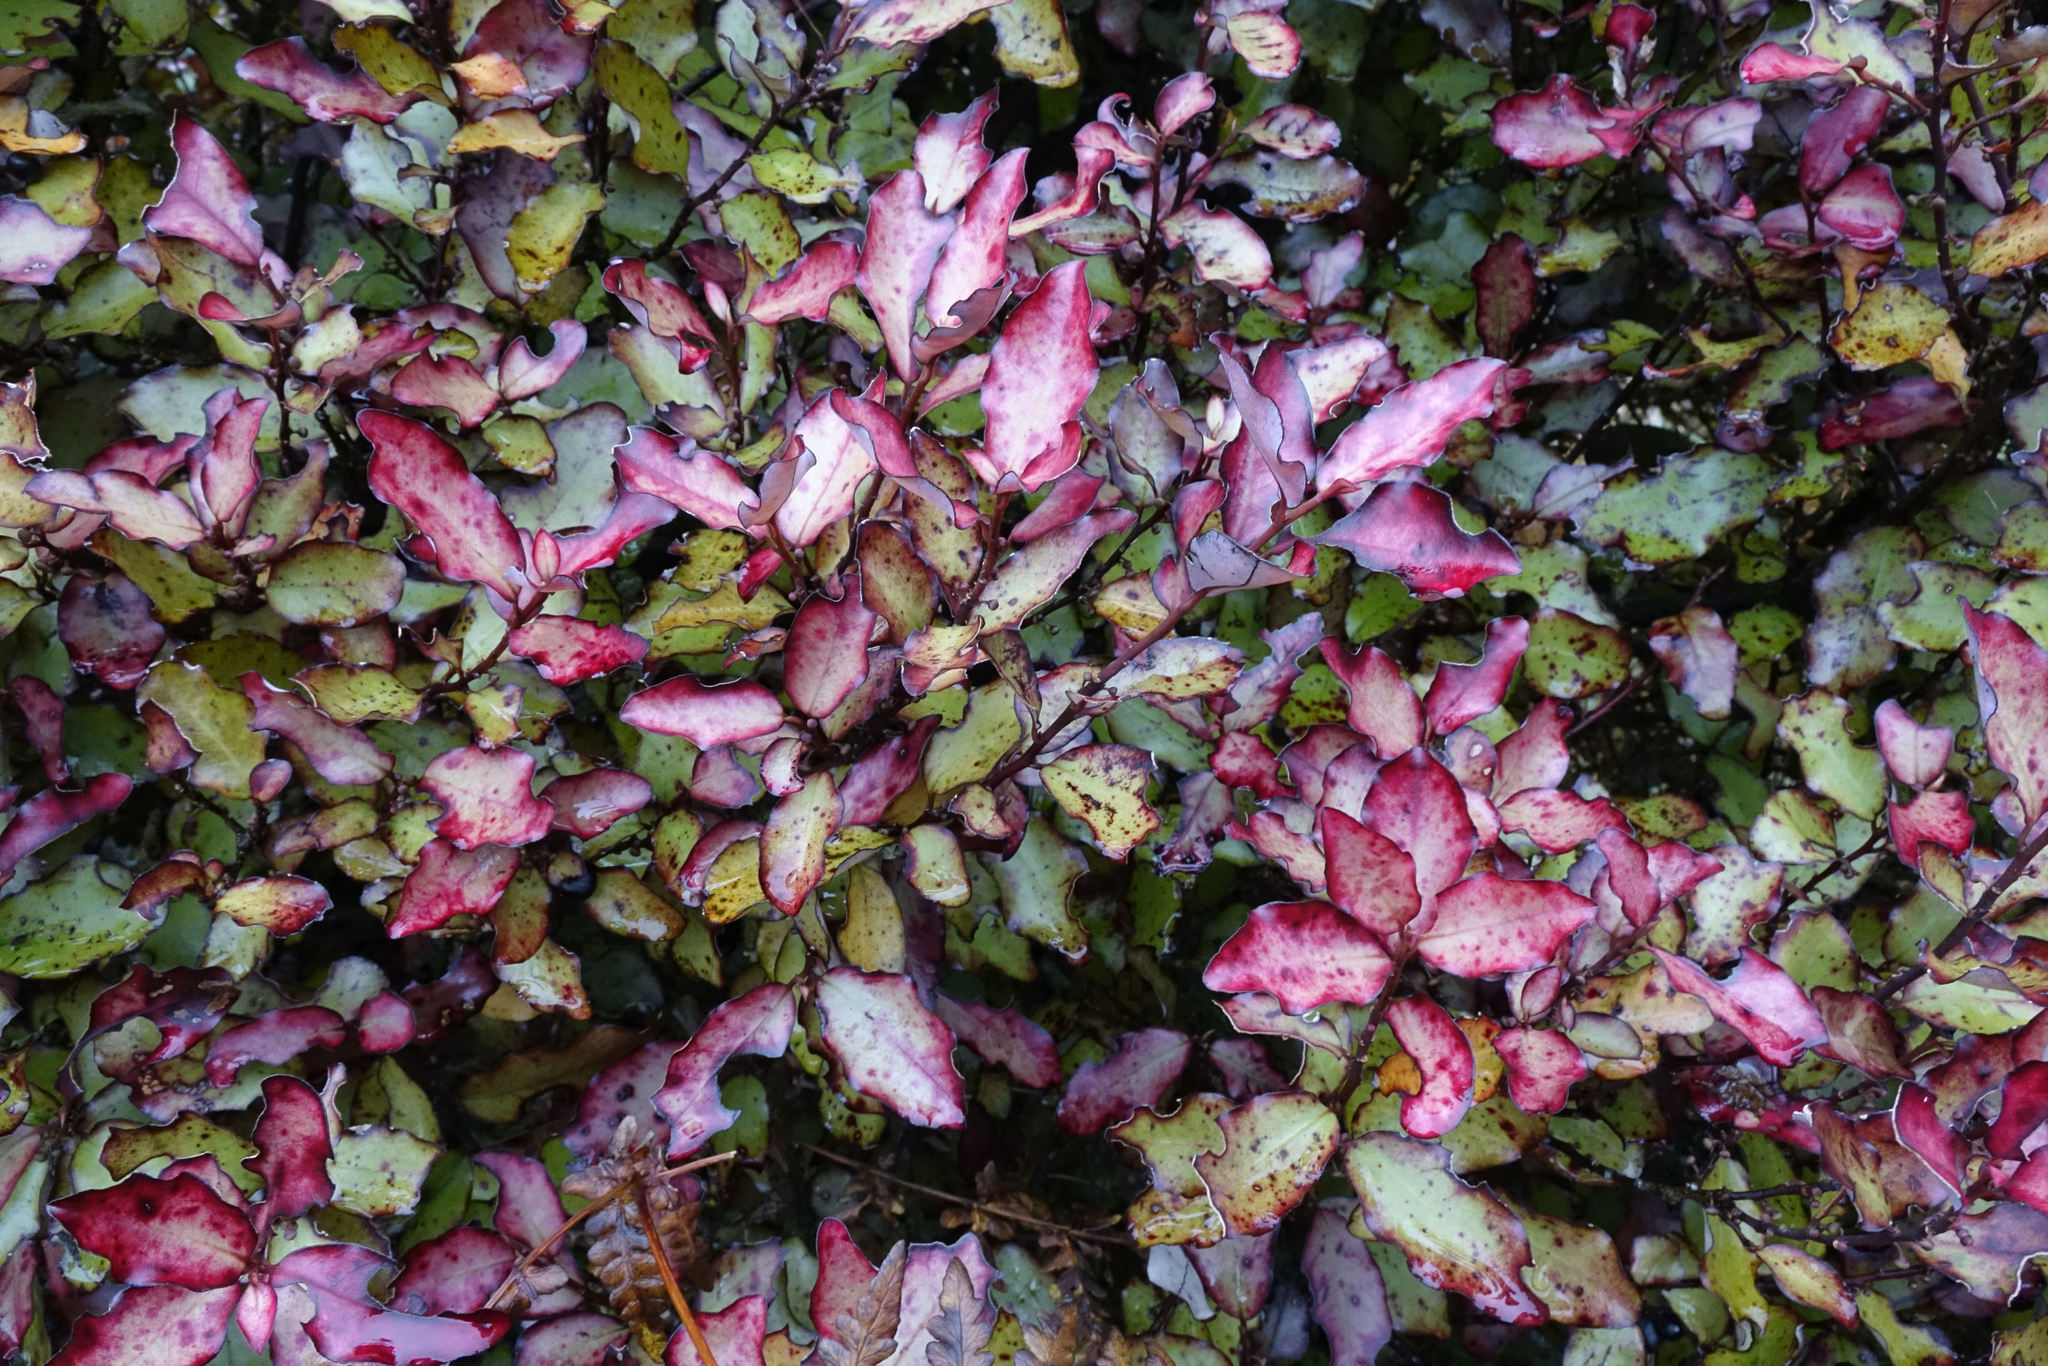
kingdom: Plantae
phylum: Tracheophyta
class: Magnoliopsida
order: Canellales
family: Winteraceae
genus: Pseudowintera
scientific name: Pseudowintera colorata
